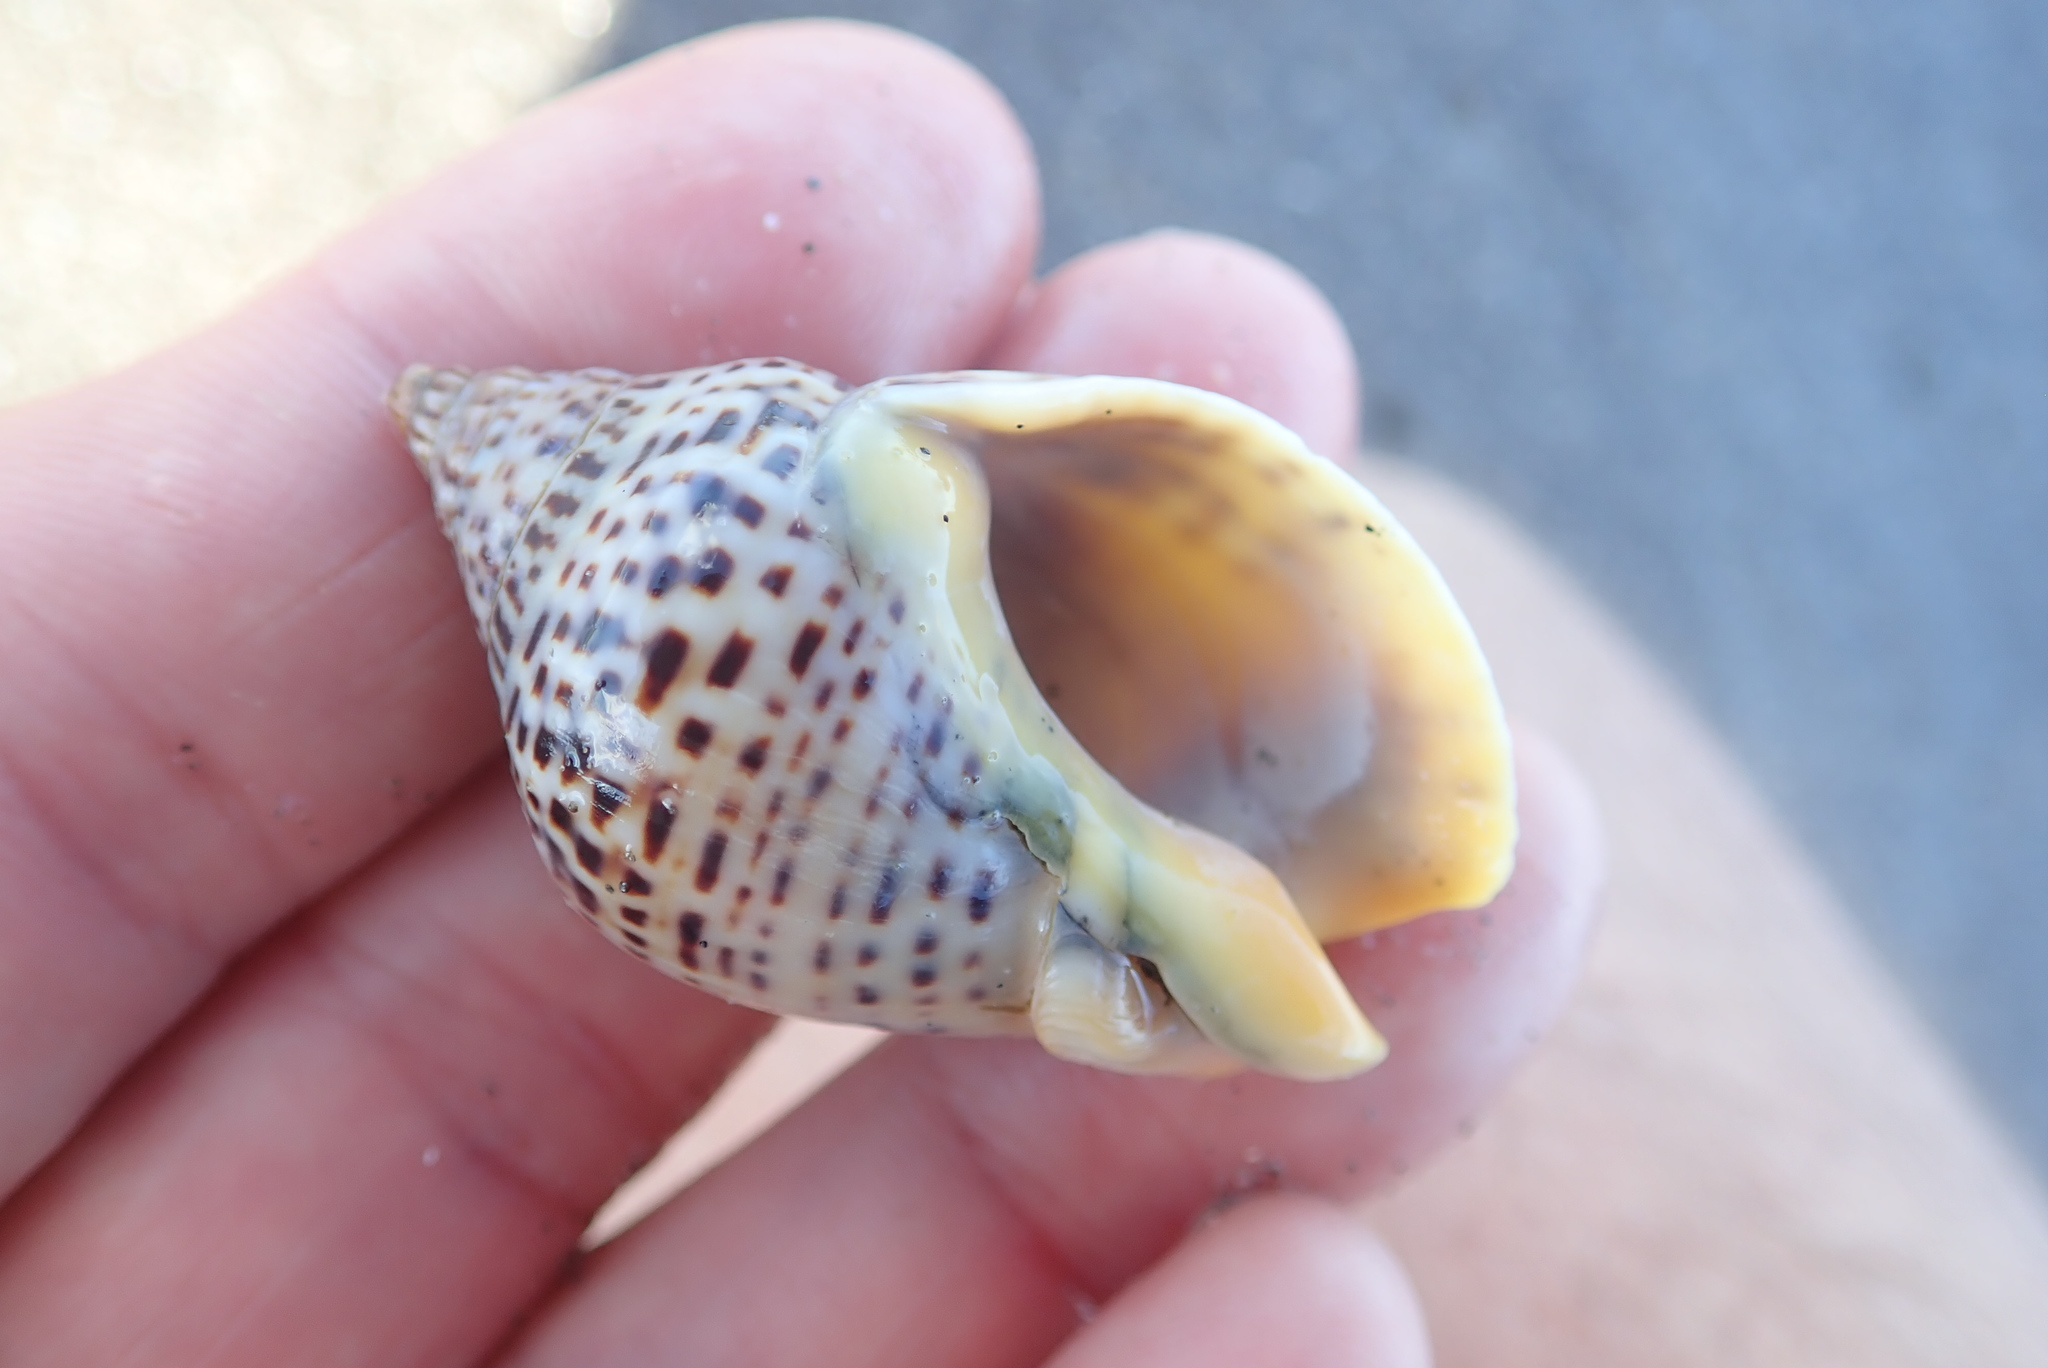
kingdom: Animalia
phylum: Mollusca
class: Gastropoda
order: Neogastropoda
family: Cominellidae
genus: Cominella
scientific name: Cominella adspersa
